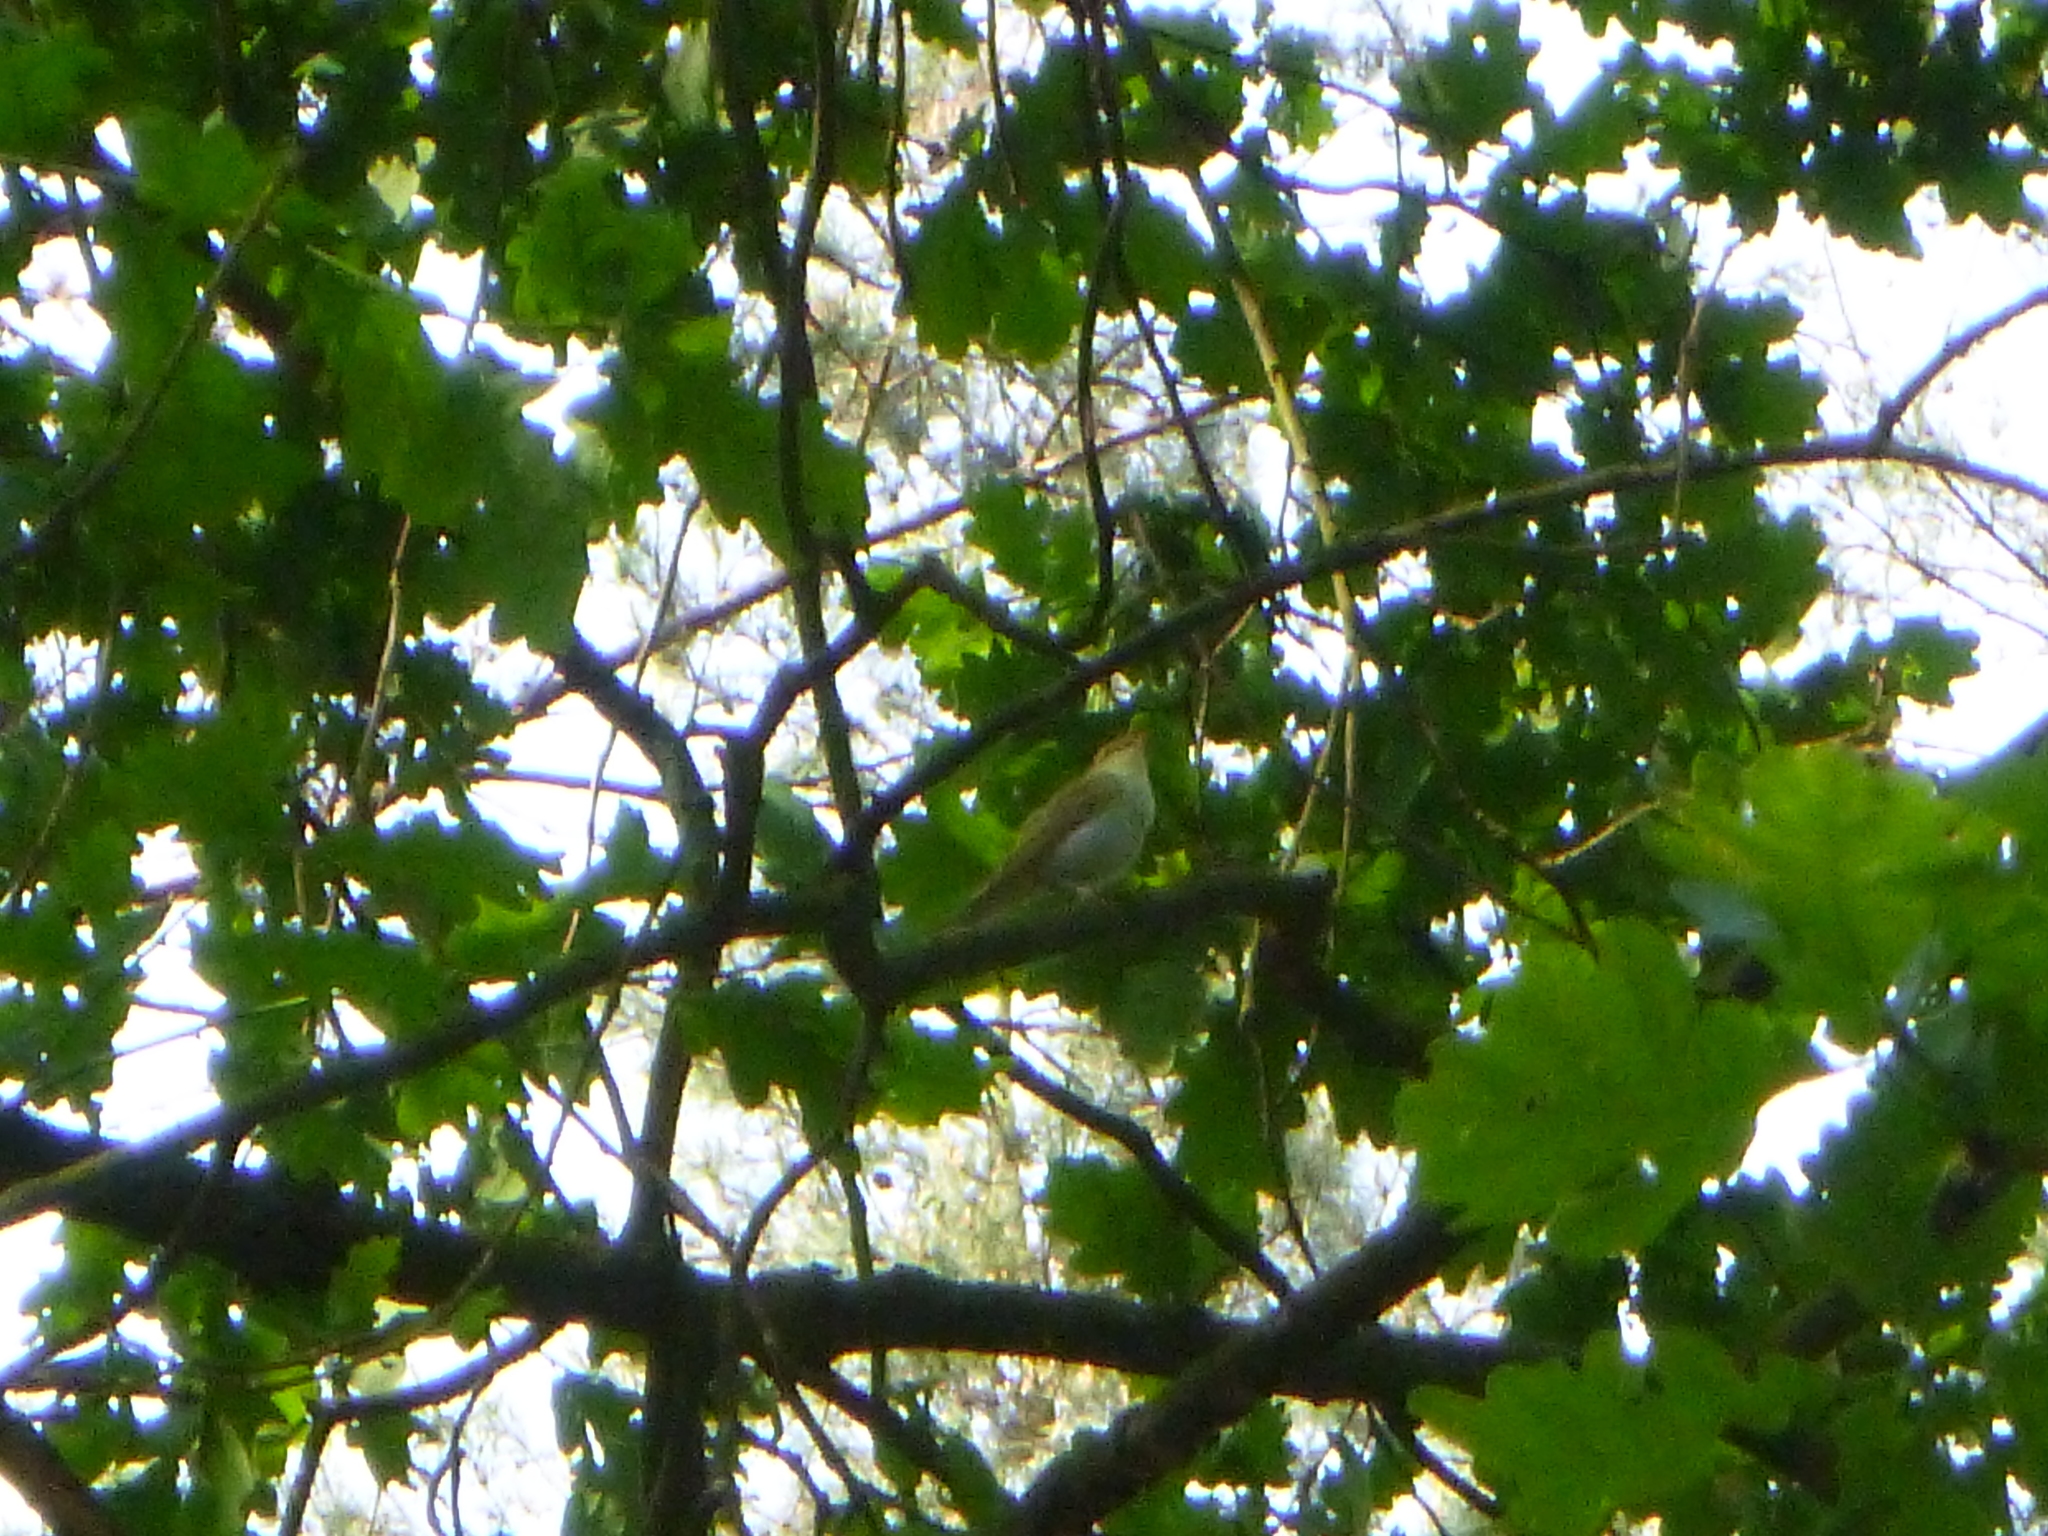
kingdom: Animalia
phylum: Chordata
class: Aves
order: Passeriformes
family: Phylloscopidae
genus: Phylloscopus
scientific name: Phylloscopus sibillatrix
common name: Wood warbler
